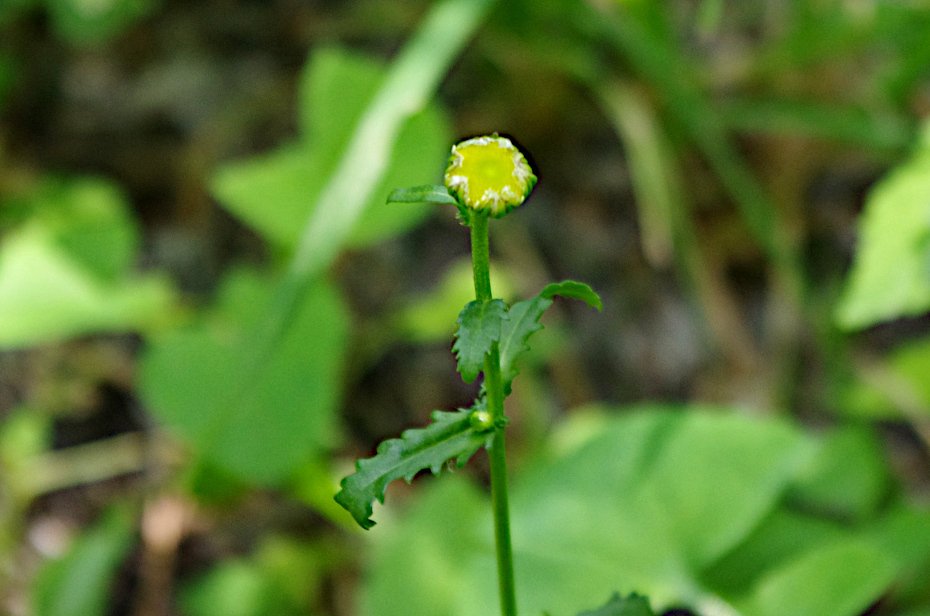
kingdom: Plantae
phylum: Tracheophyta
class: Magnoliopsida
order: Asterales
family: Asteraceae
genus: Leucanthemum
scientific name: Leucanthemum vulgare
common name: Oxeye daisy
